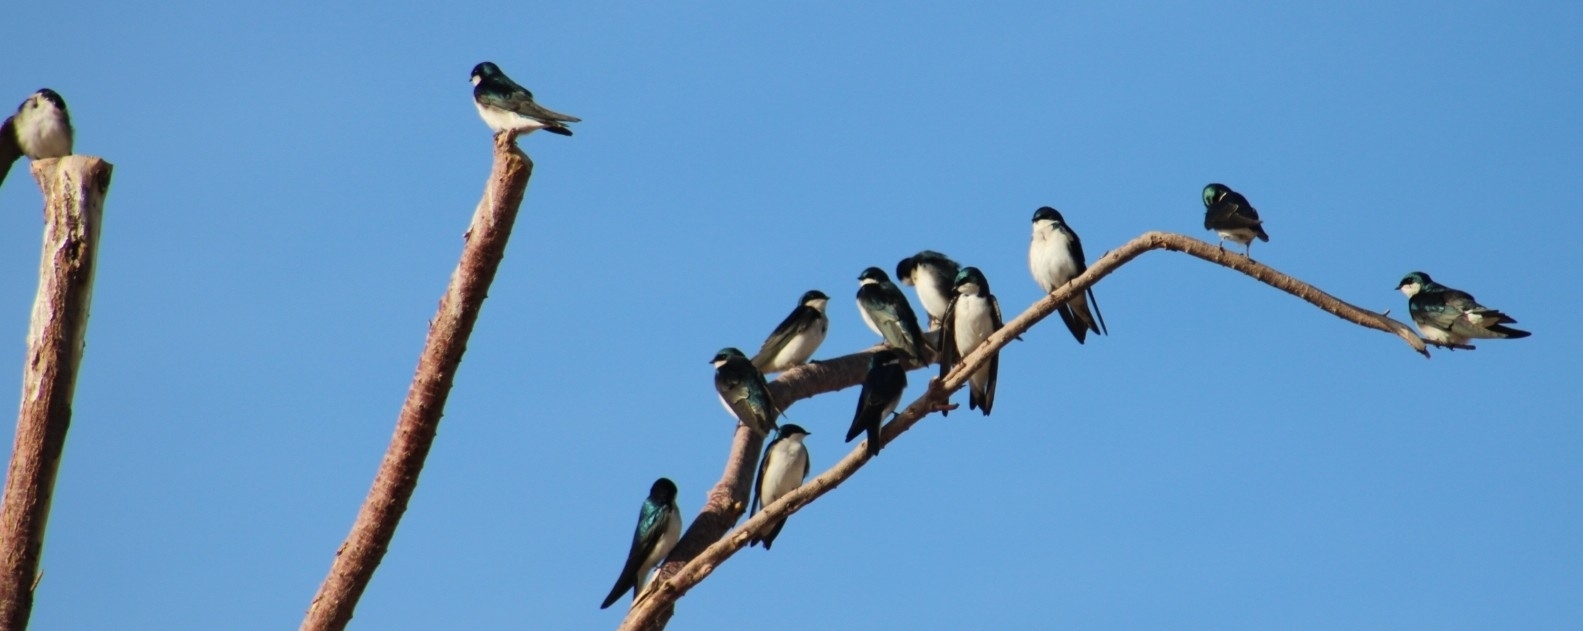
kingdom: Animalia
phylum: Chordata
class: Aves
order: Passeriformes
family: Hirundinidae
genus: Tachycineta
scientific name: Tachycineta bicolor
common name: Tree swallow
